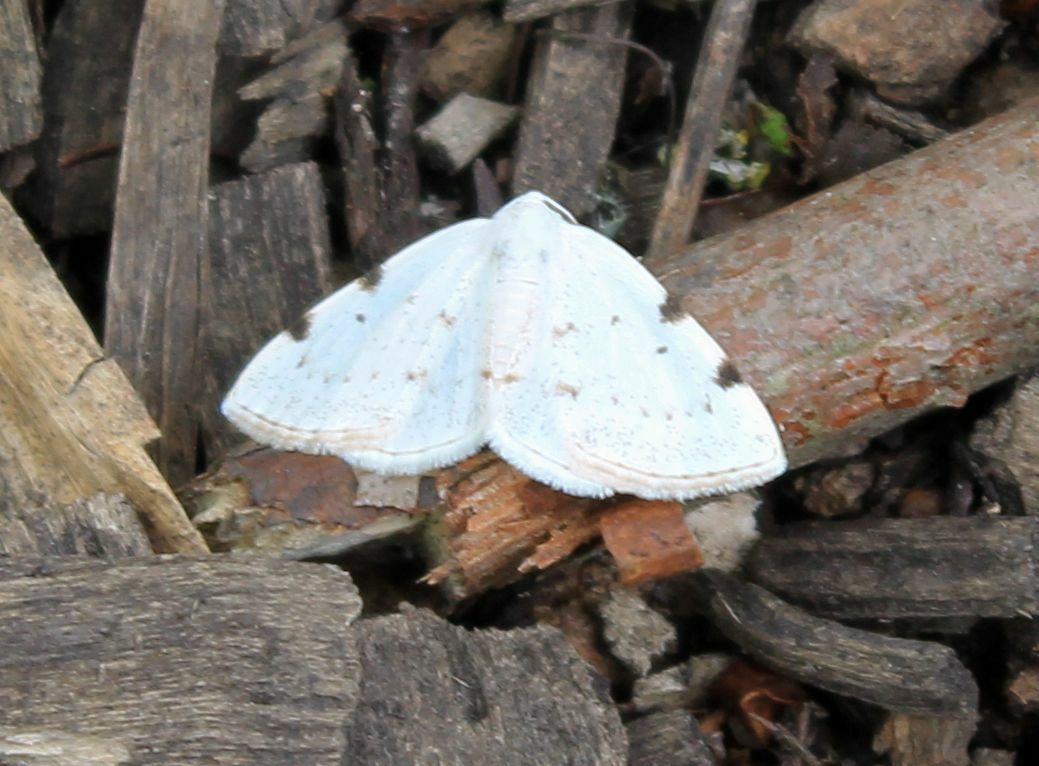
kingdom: Animalia
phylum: Arthropoda
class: Insecta
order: Lepidoptera
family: Geometridae
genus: Lomographa
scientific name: Lomographa bimaculata
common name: White-pinion spotted
